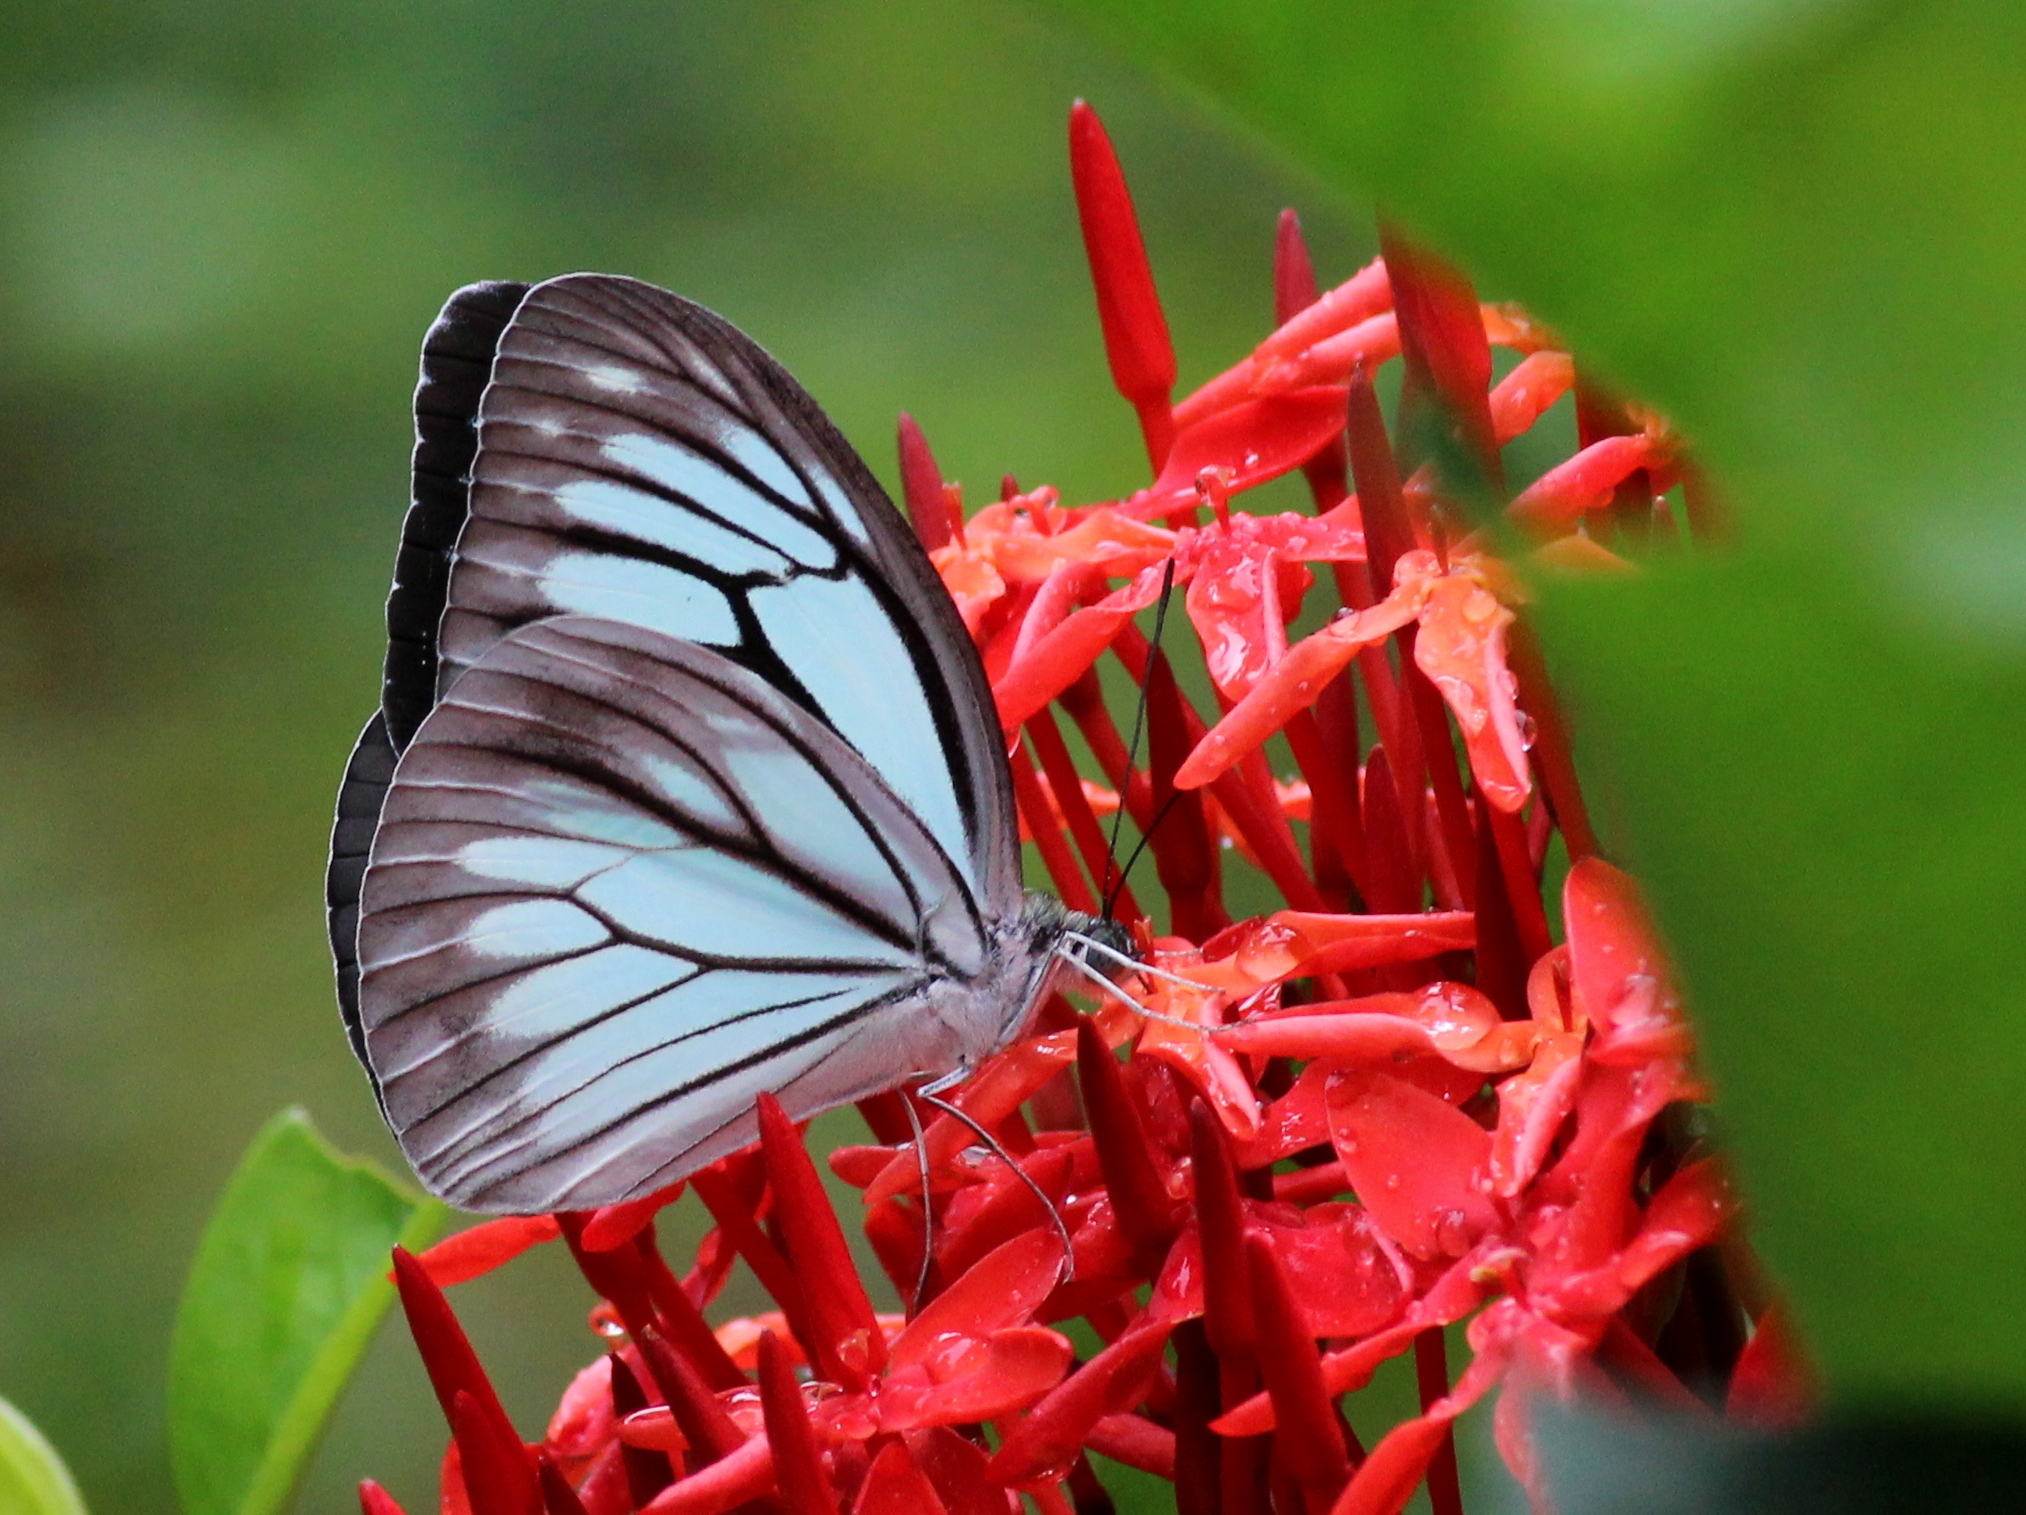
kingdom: Animalia
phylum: Arthropoda
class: Insecta
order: Lepidoptera
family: Pieridae
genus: Pareronia
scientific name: Pareronia hippia
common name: Indian wanderer
